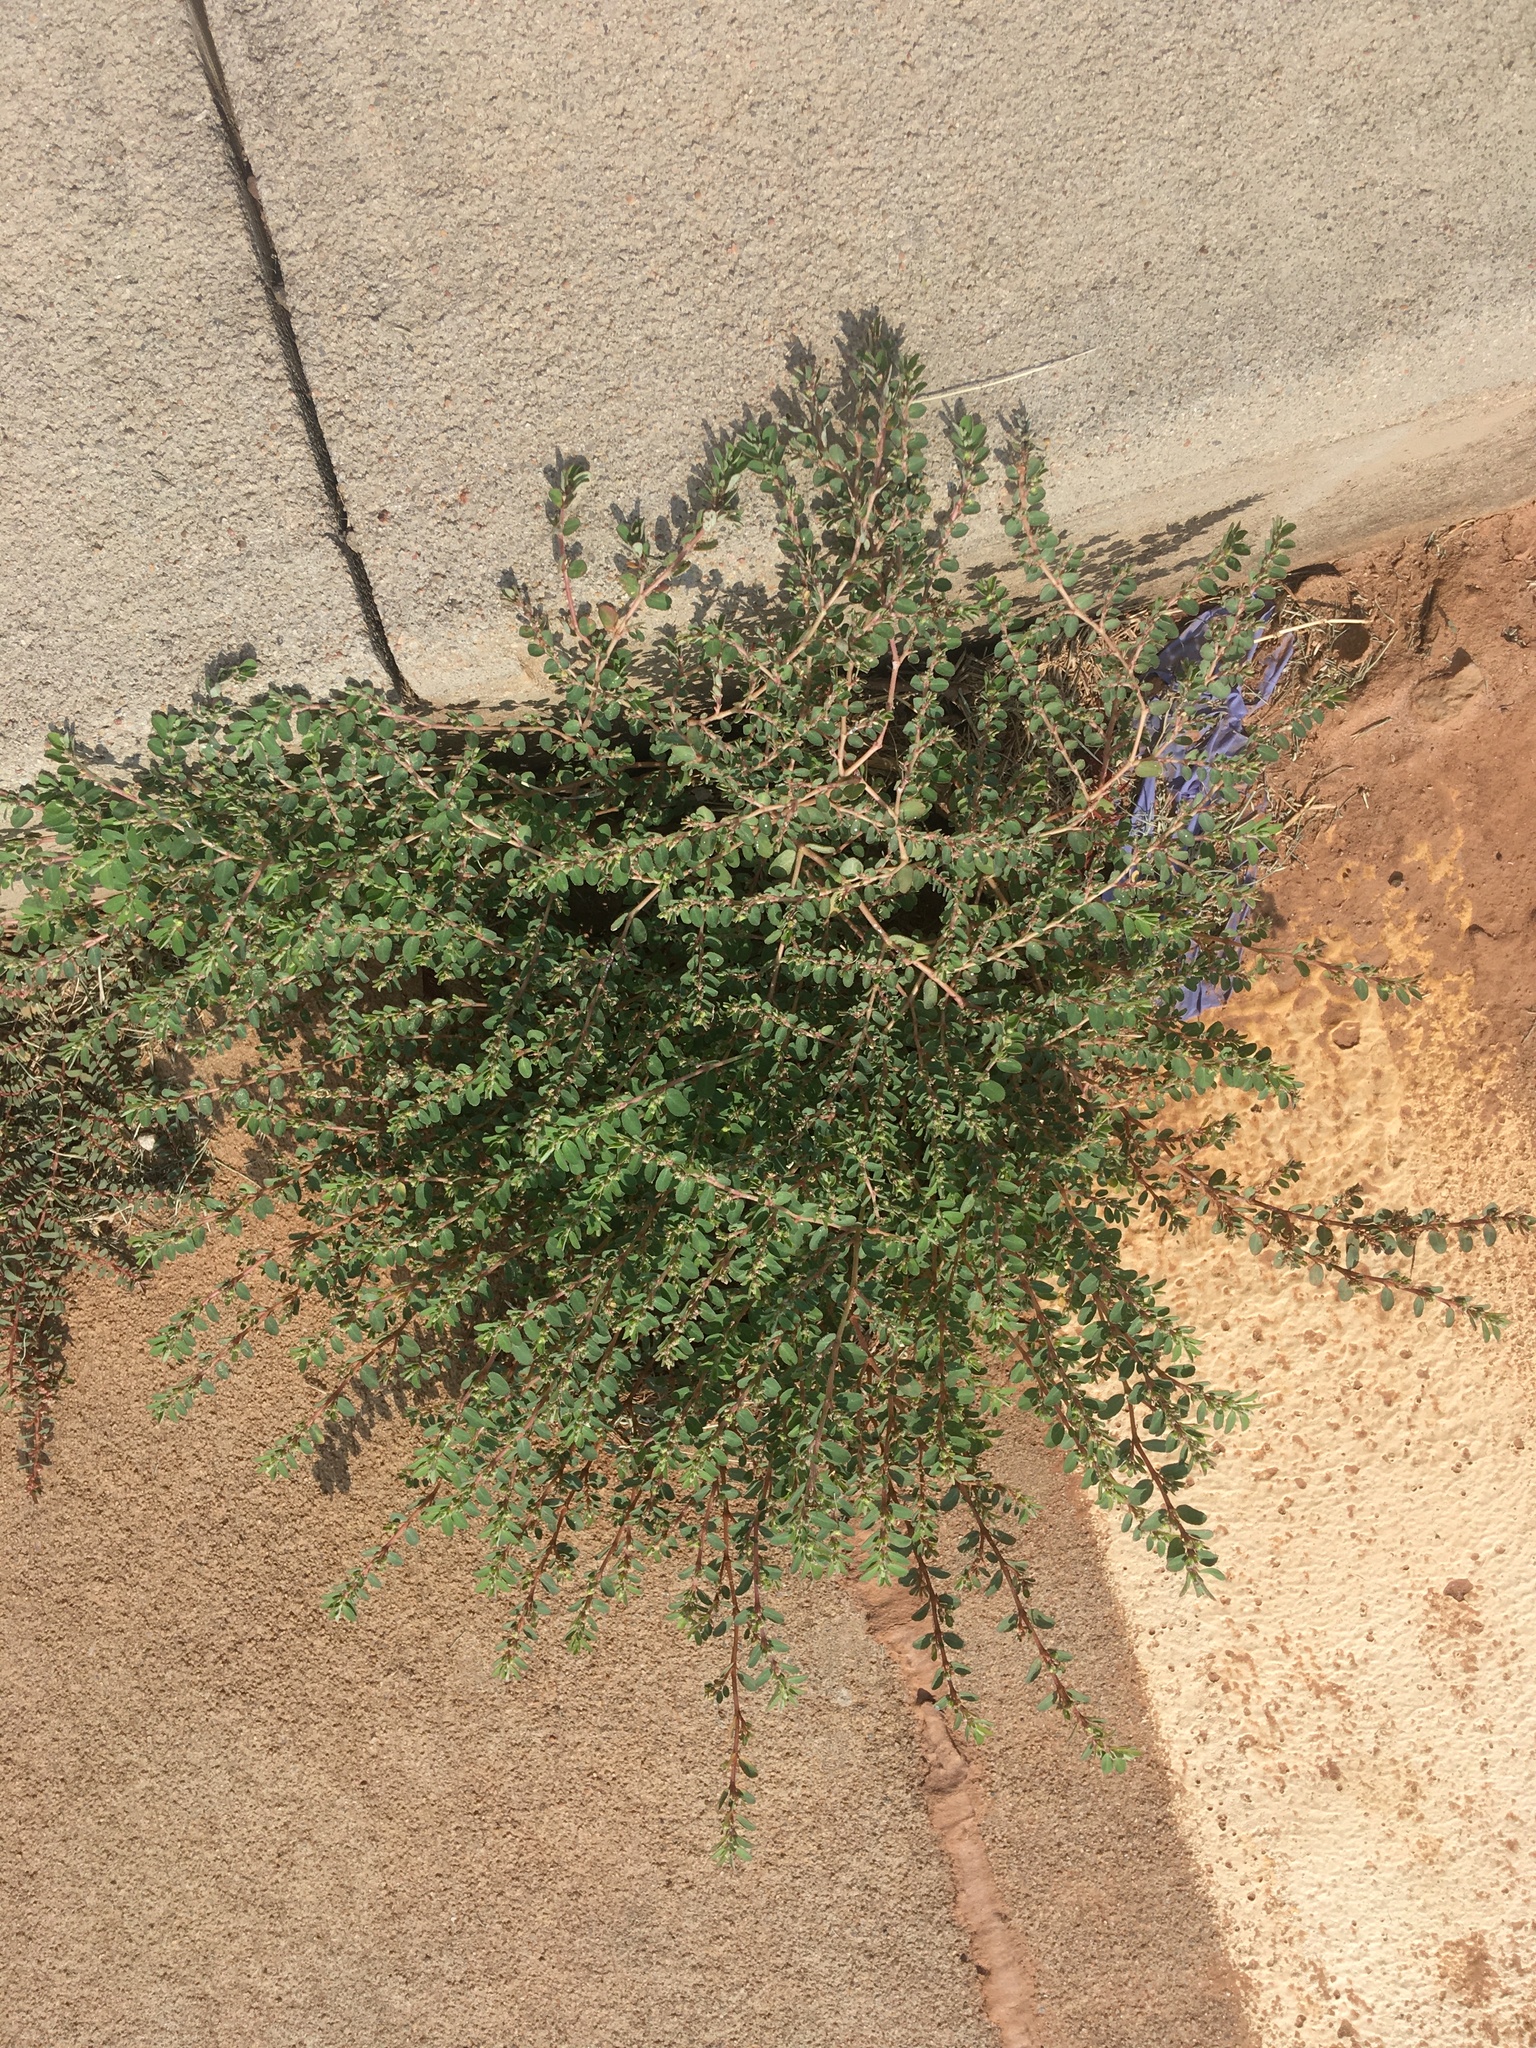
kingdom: Plantae
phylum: Tracheophyta
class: Magnoliopsida
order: Malpighiales
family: Euphorbiaceae
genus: Euphorbia
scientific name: Euphorbia prostrata
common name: Prostrate sandmat
